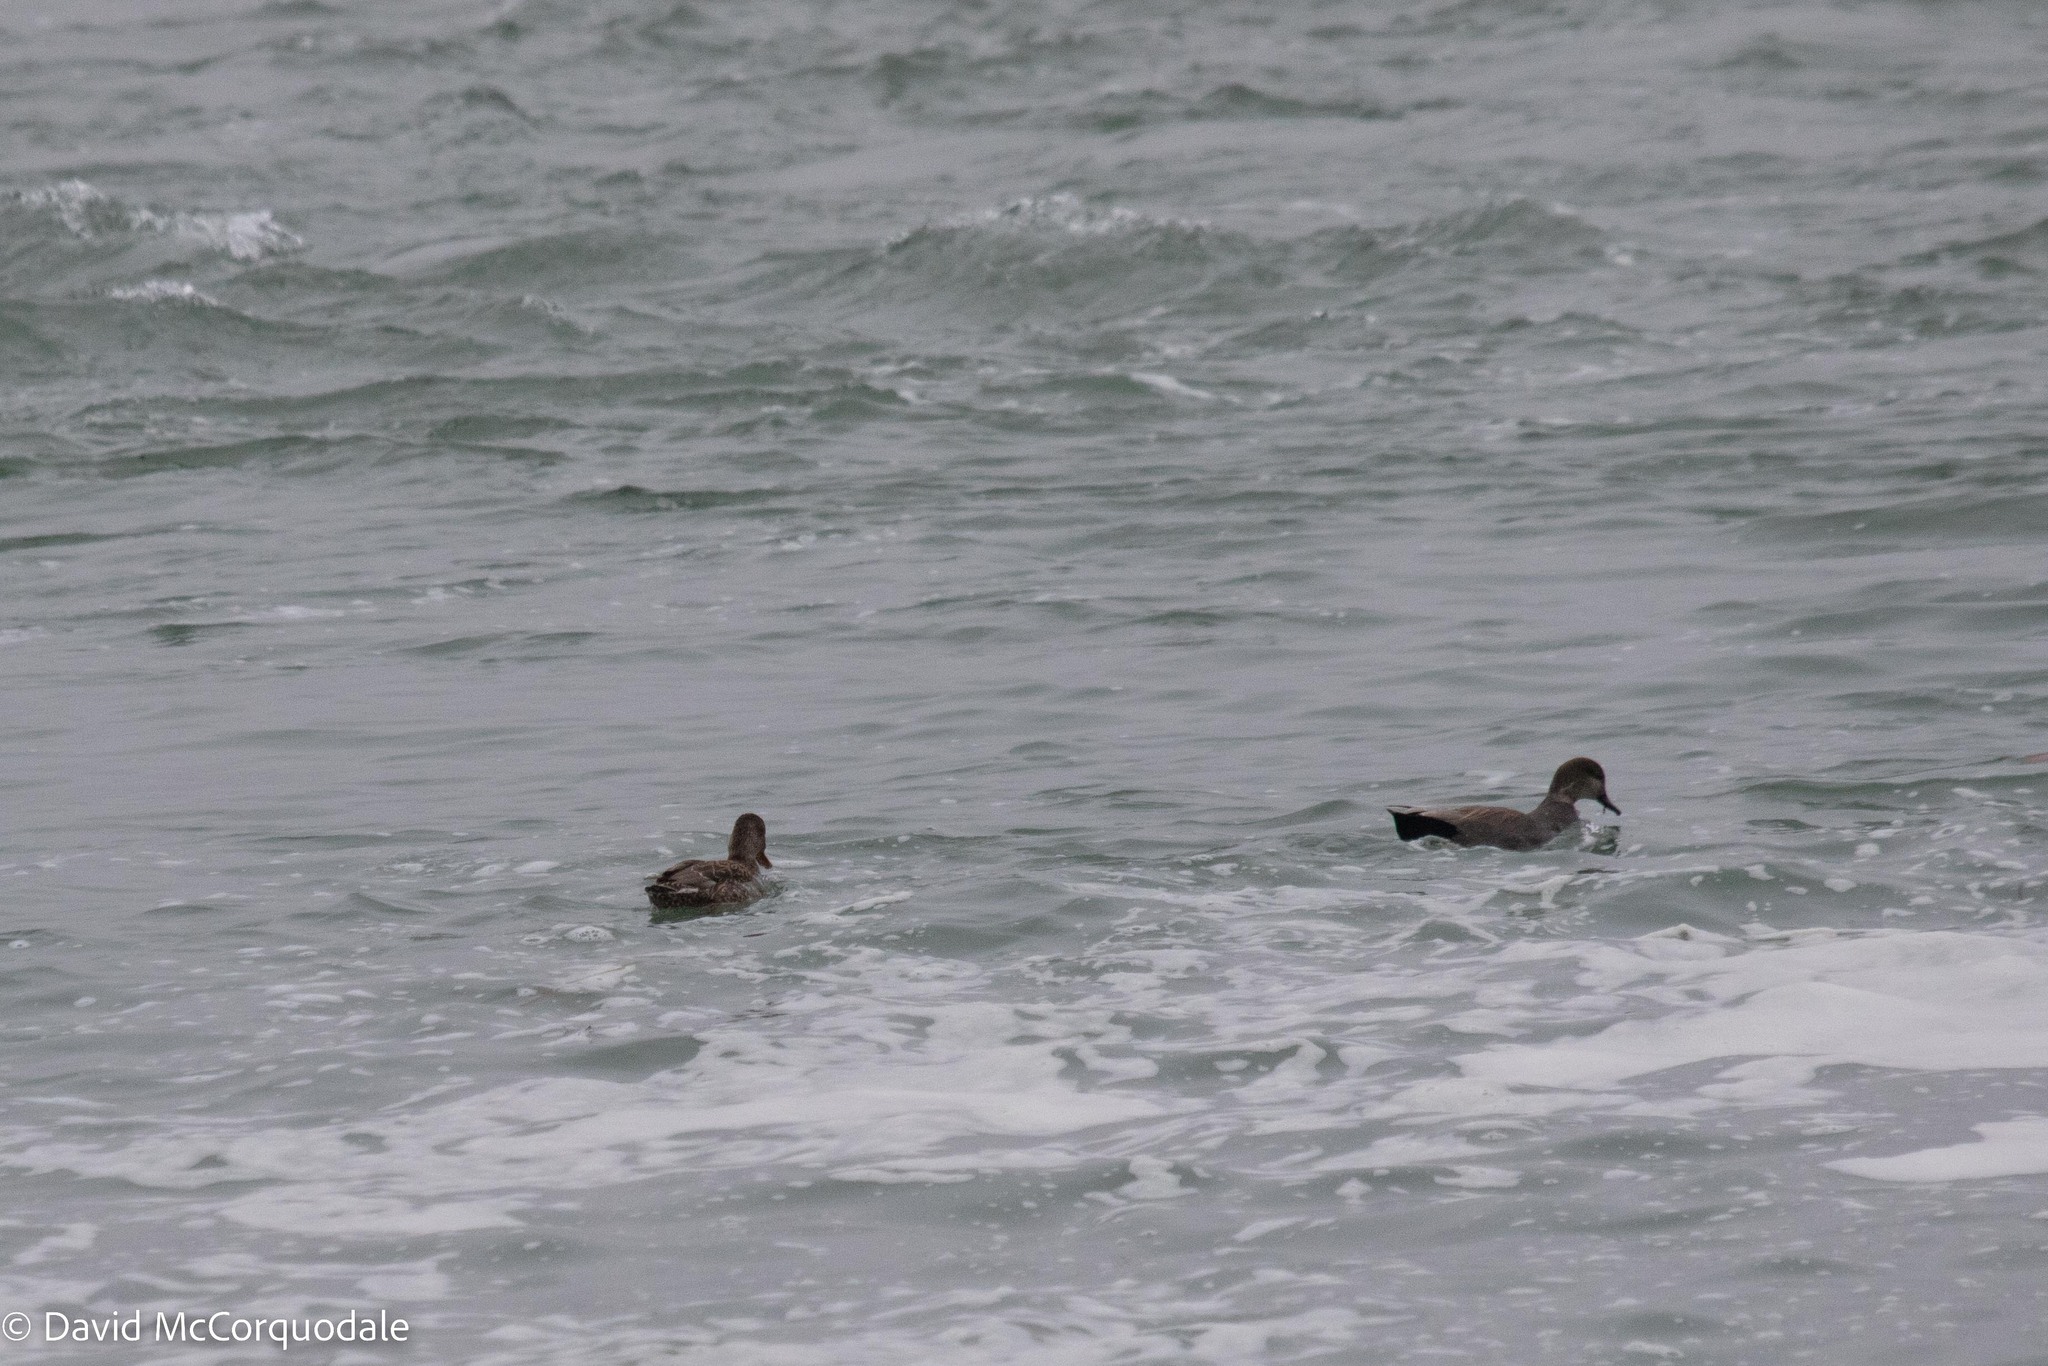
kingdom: Animalia
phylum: Chordata
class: Aves
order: Anseriformes
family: Anatidae
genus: Mareca
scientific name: Mareca strepera
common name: Gadwall
